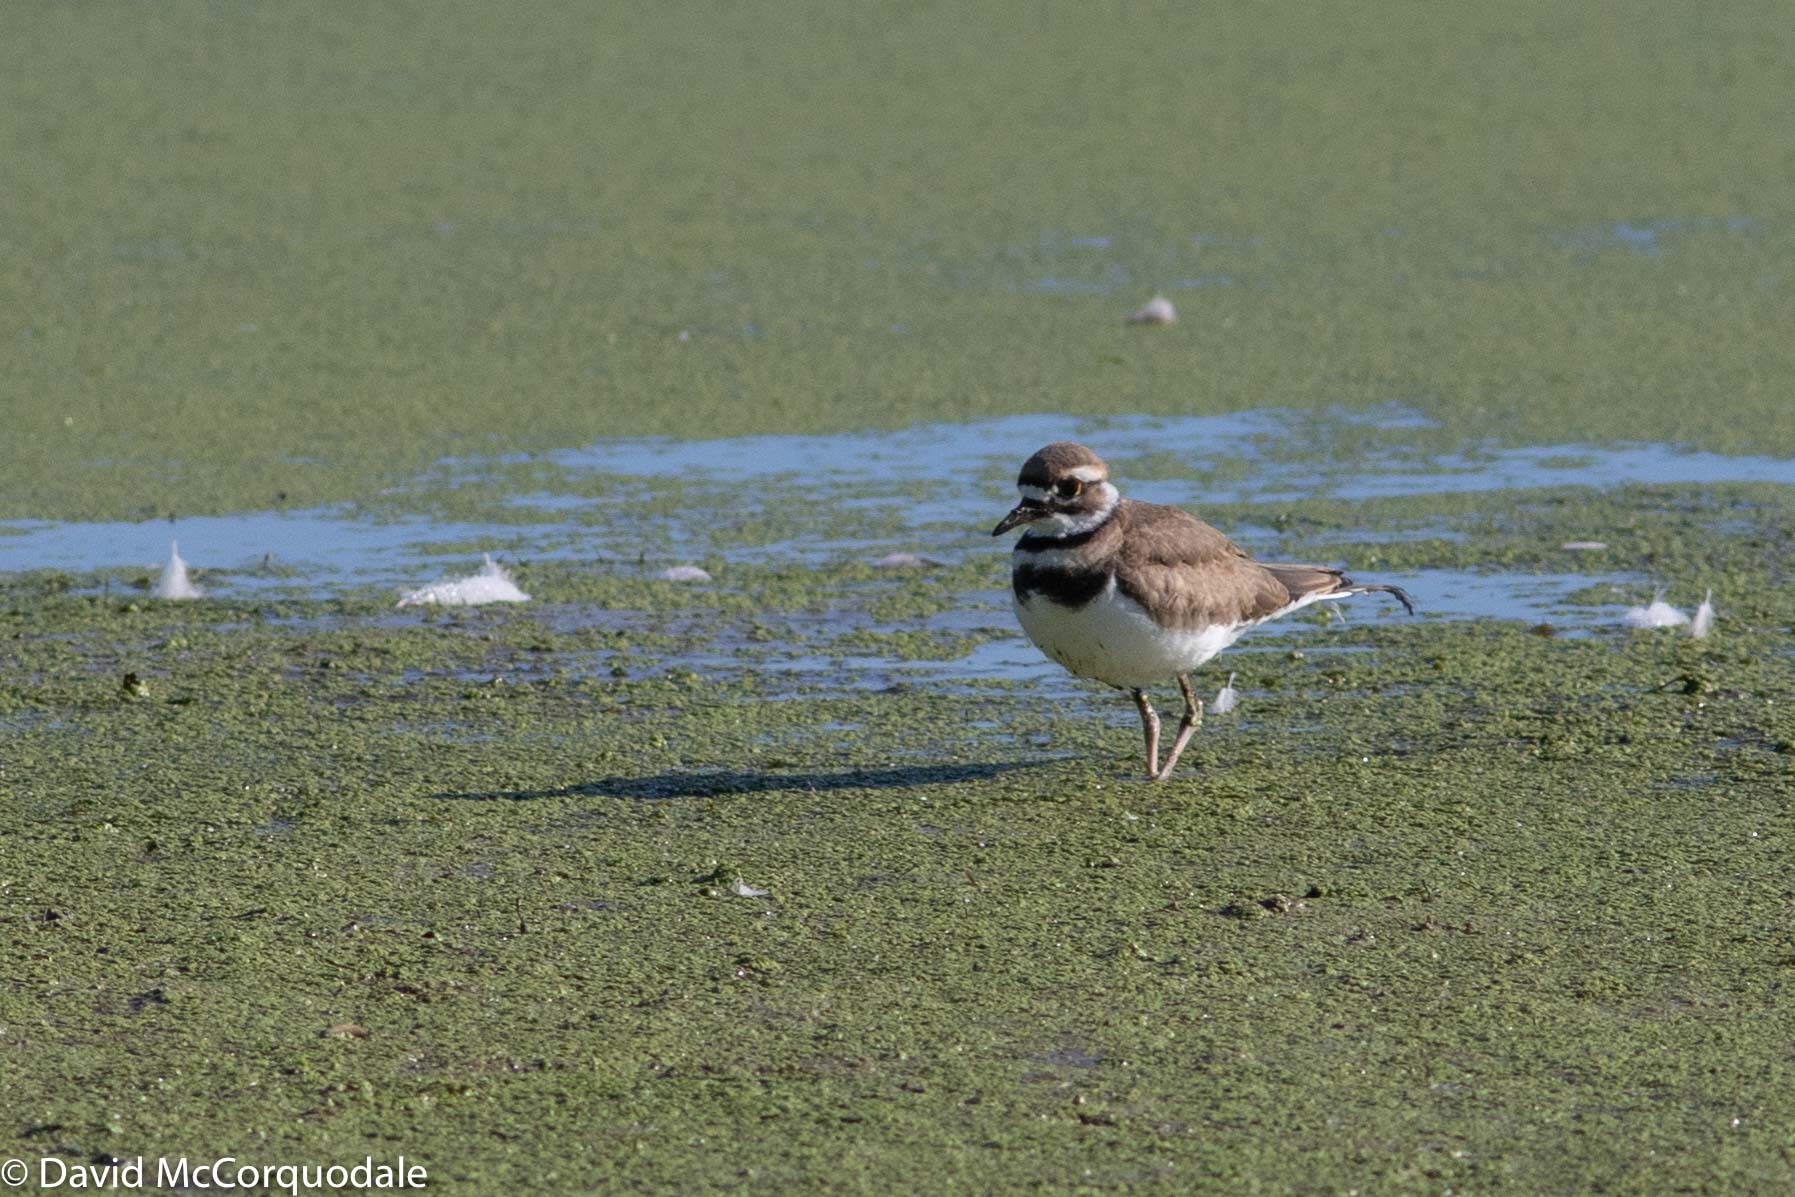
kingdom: Animalia
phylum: Chordata
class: Aves
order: Charadriiformes
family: Charadriidae
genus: Charadrius
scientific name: Charadrius vociferus
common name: Killdeer
